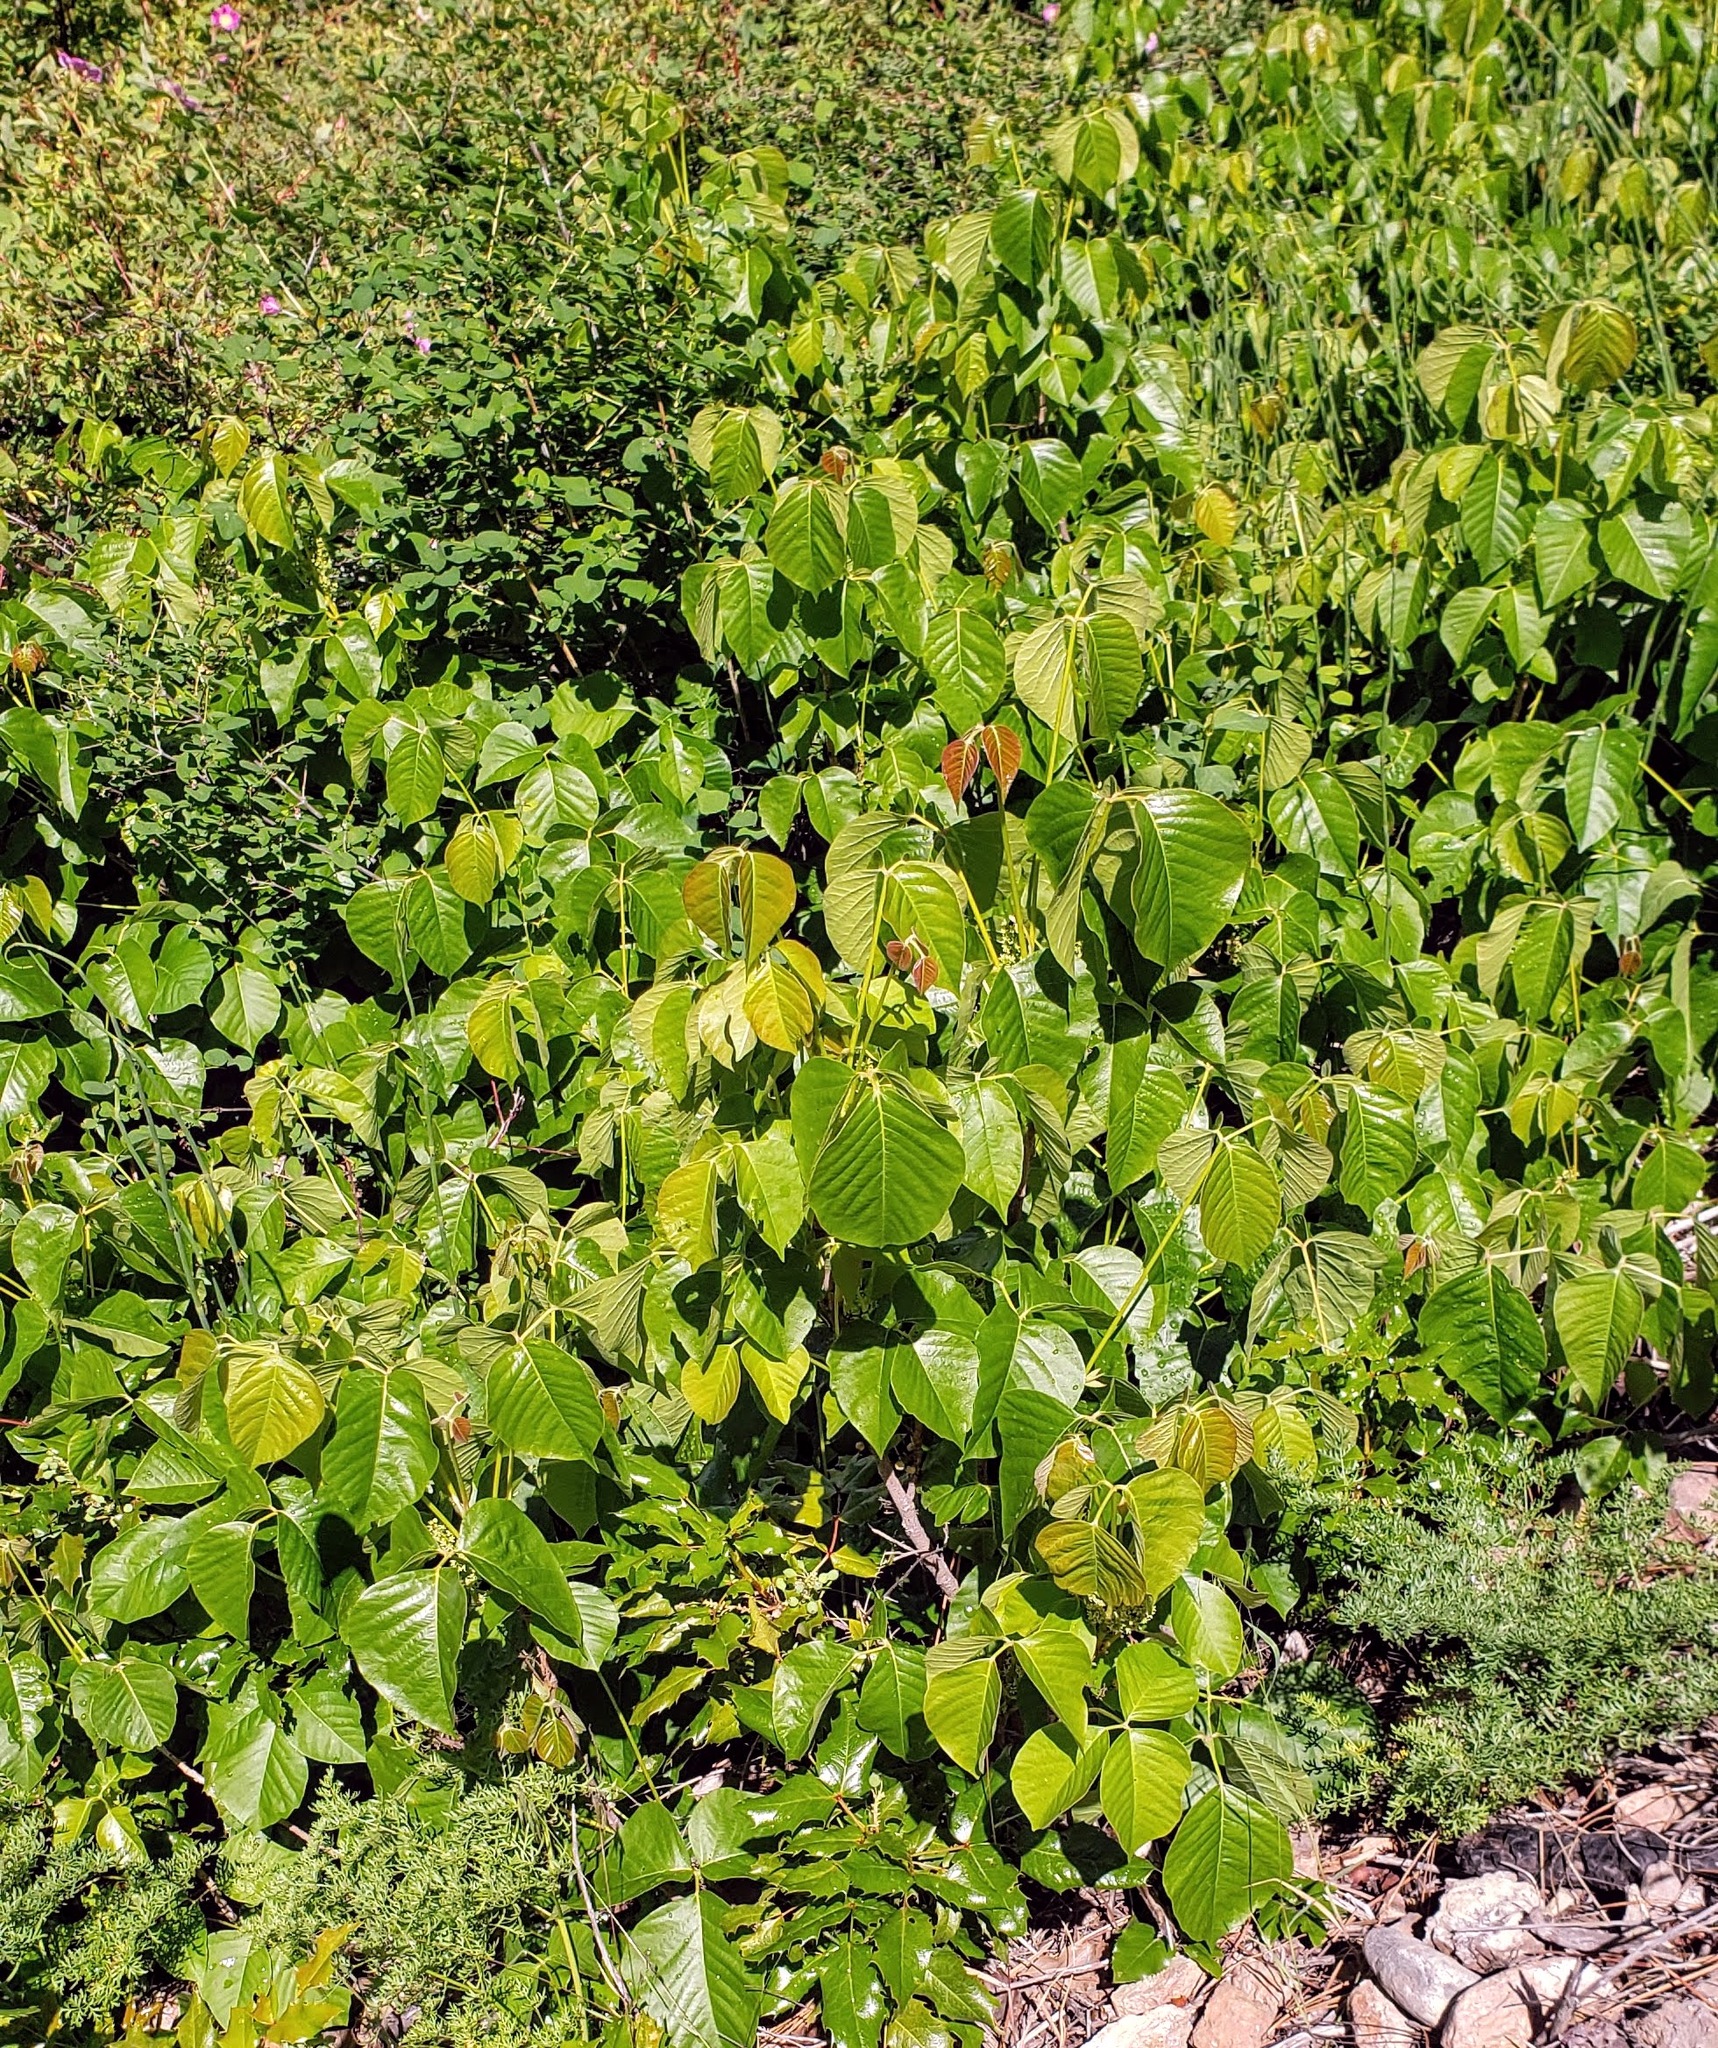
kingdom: Plantae
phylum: Tracheophyta
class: Magnoliopsida
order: Sapindales
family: Anacardiaceae
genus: Toxicodendron
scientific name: Toxicodendron rydbergii
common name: Rydberg's poison-ivy
